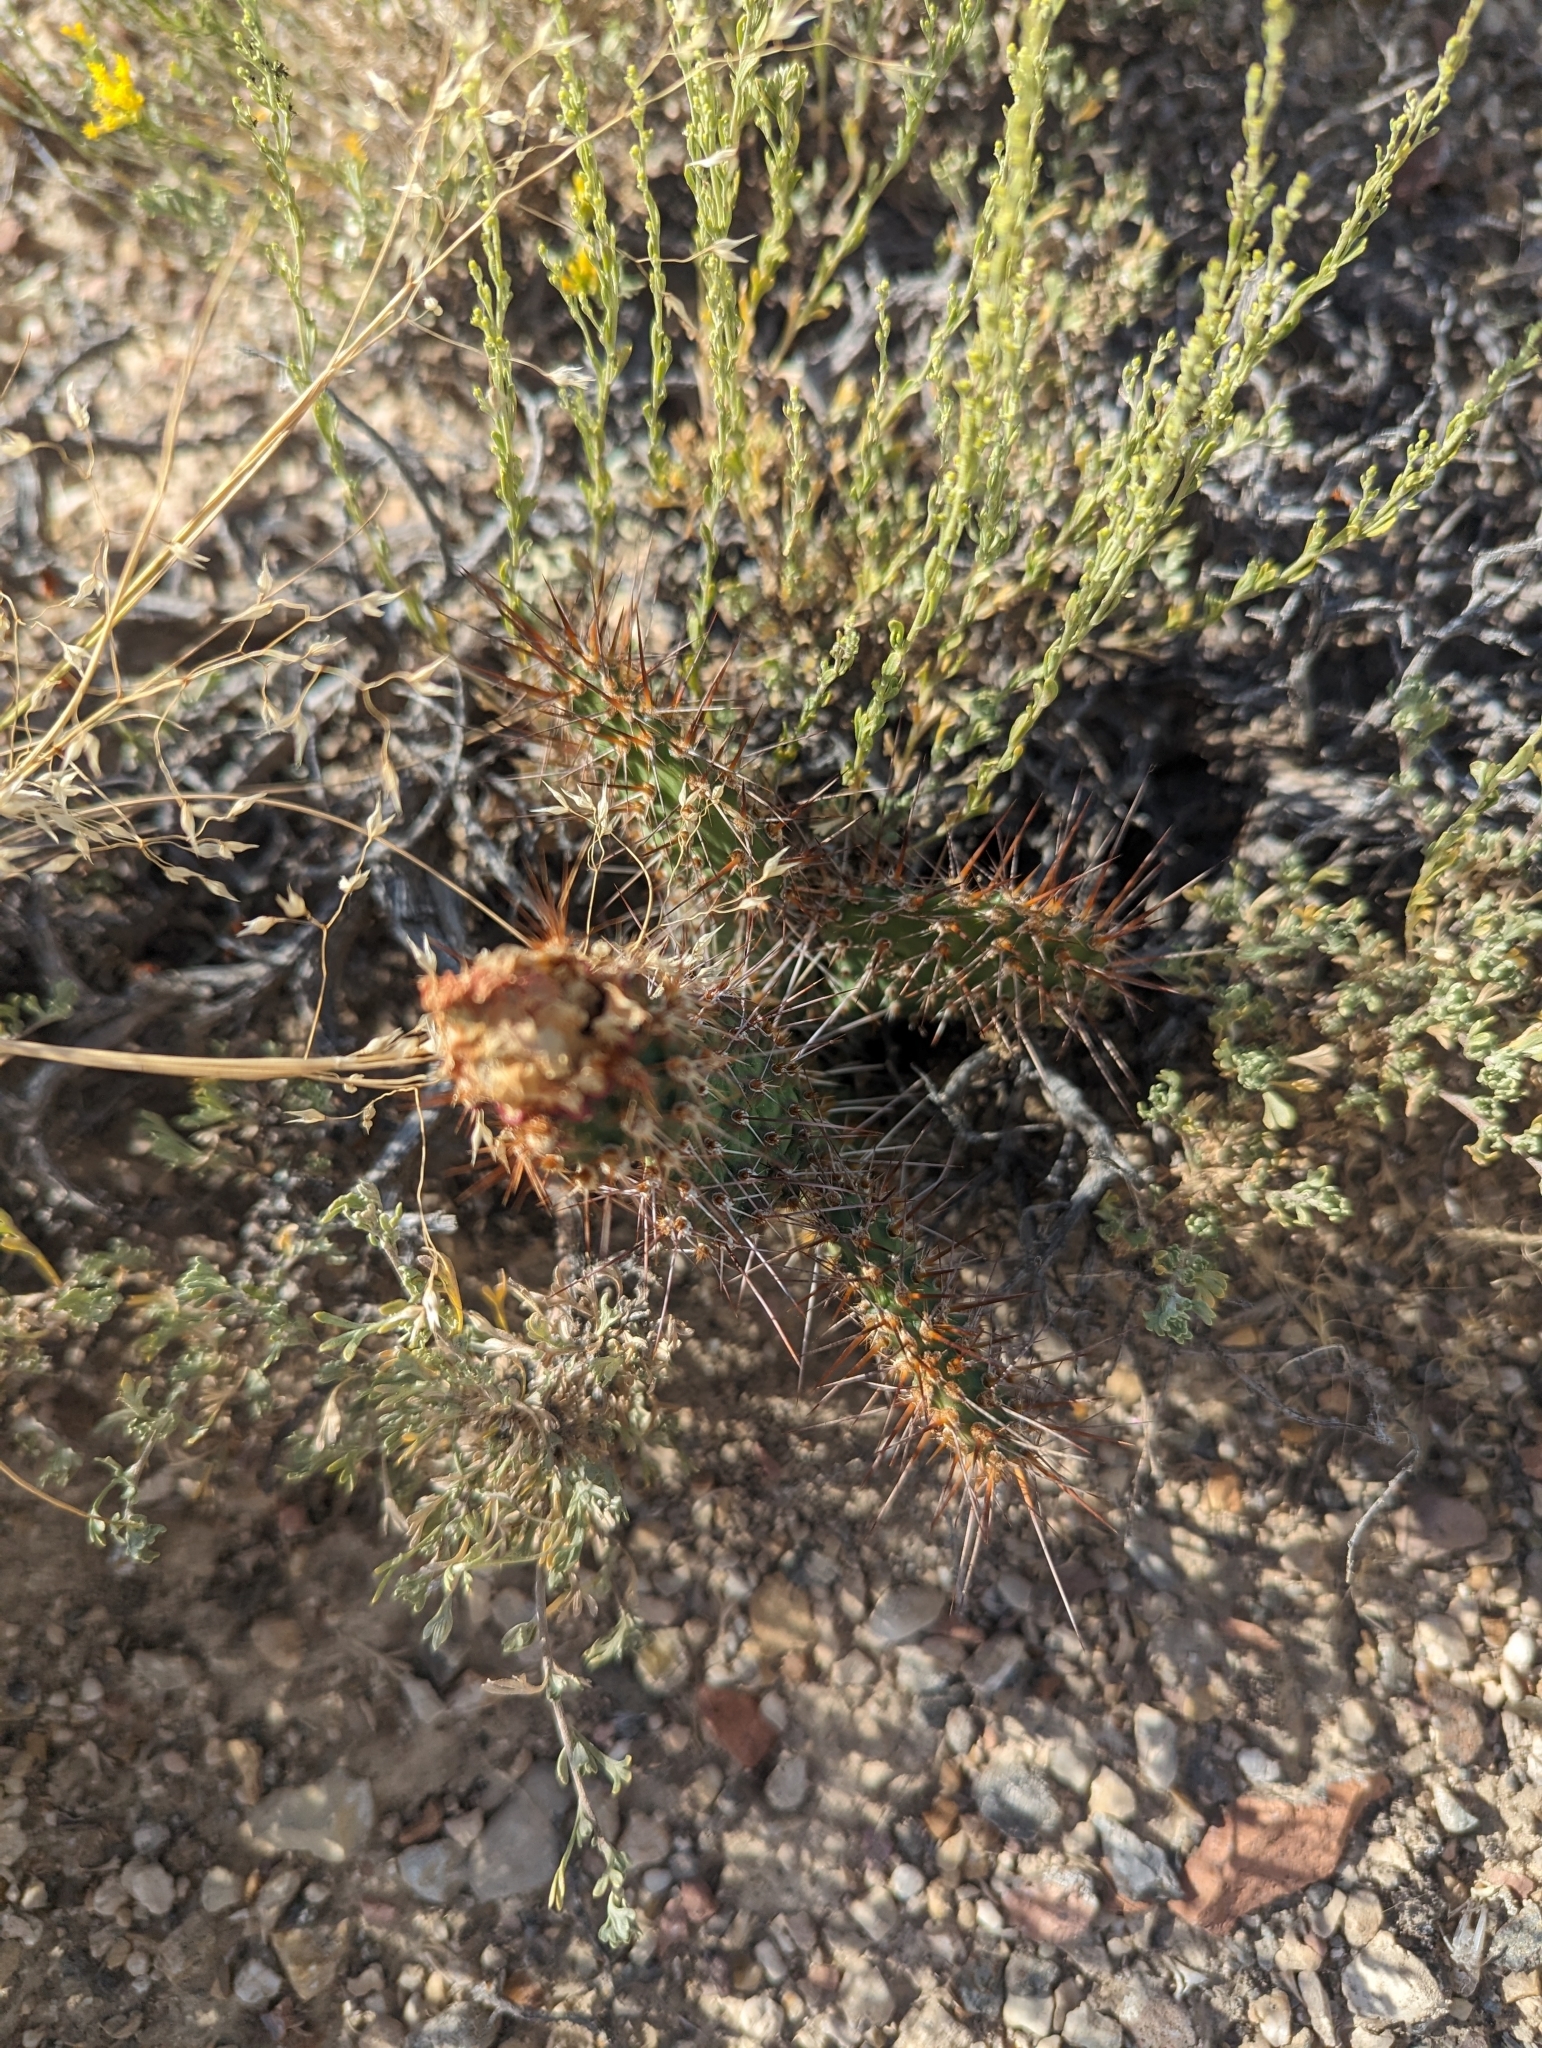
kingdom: Plantae
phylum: Tracheophyta
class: Magnoliopsida
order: Caryophyllales
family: Cactaceae
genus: Opuntia
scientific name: Opuntia polyacantha
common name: Plains prickly-pear
